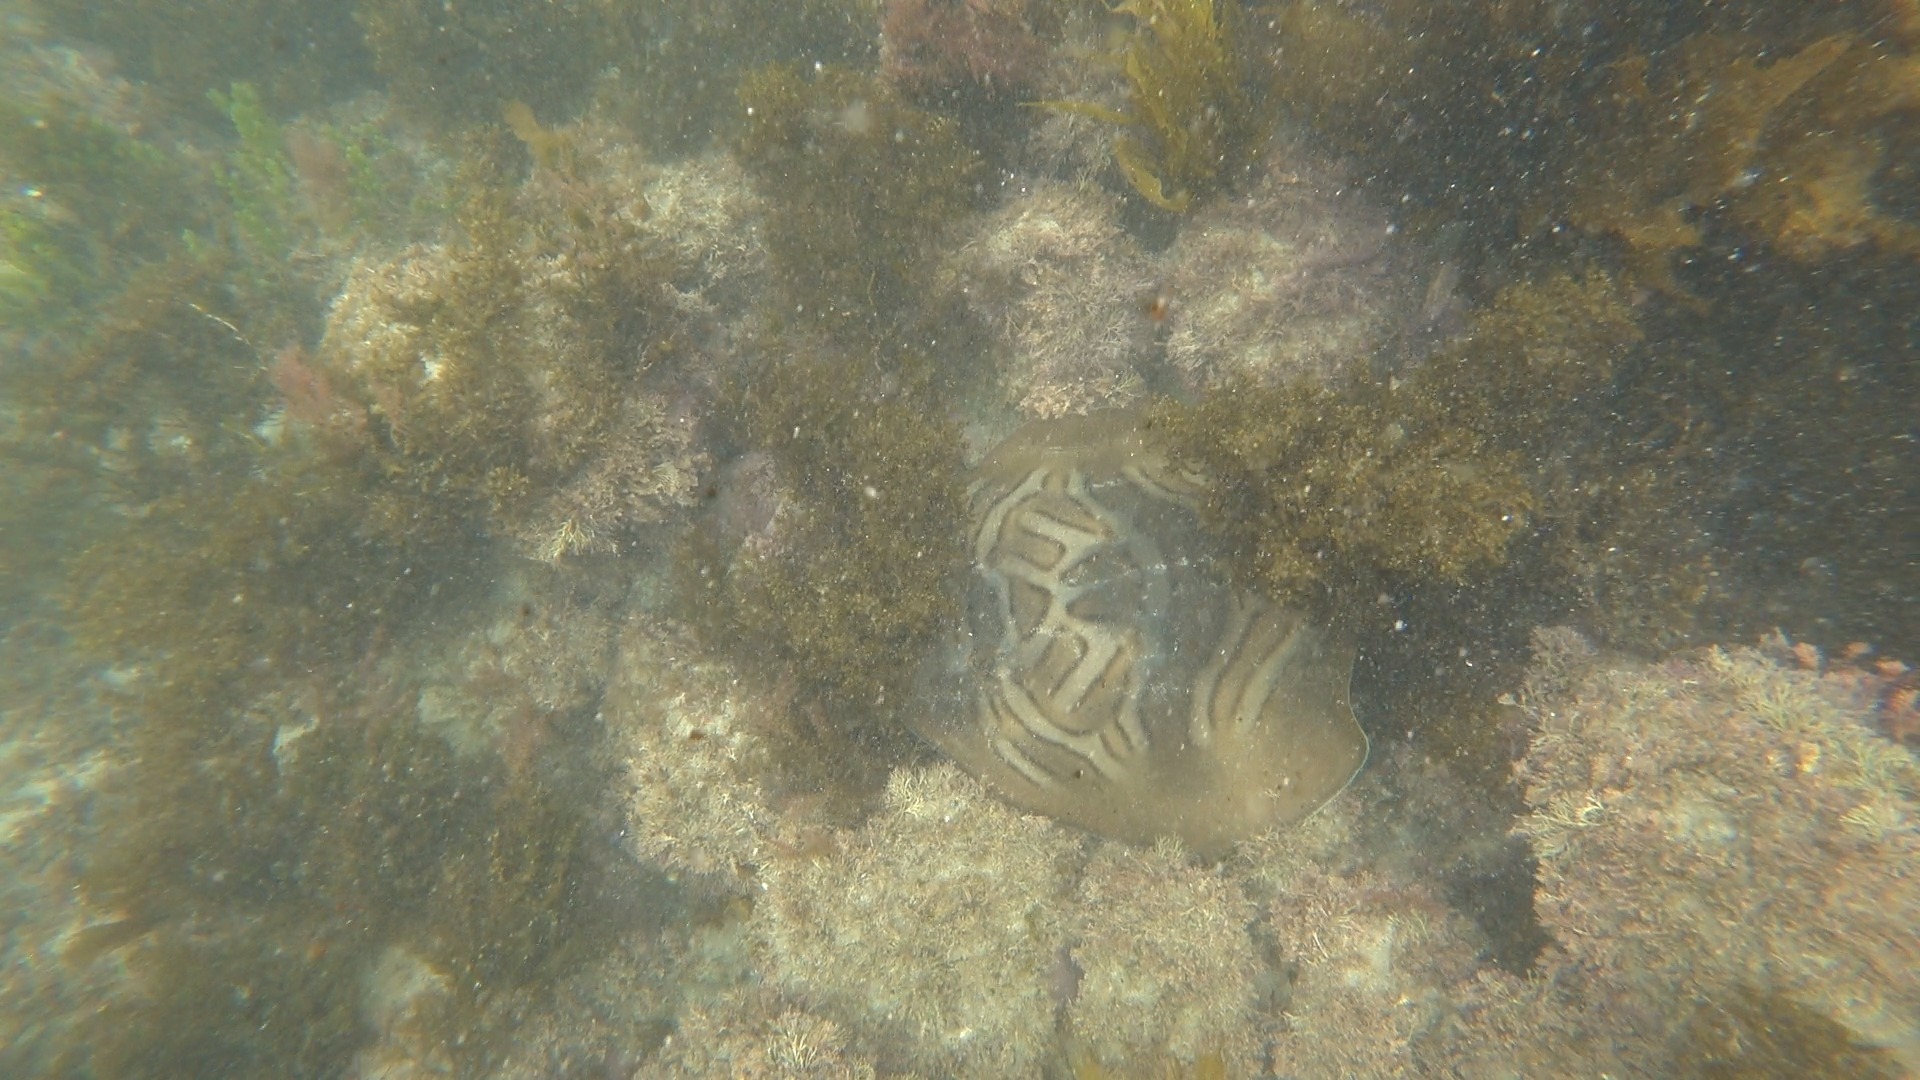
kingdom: Animalia
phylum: Chordata
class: Elasmobranchii
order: Rhinopristiformes
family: Rhinobatidae
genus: Trygonorrhina
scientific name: Trygonorrhina fasciata
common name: Southern fiddler
